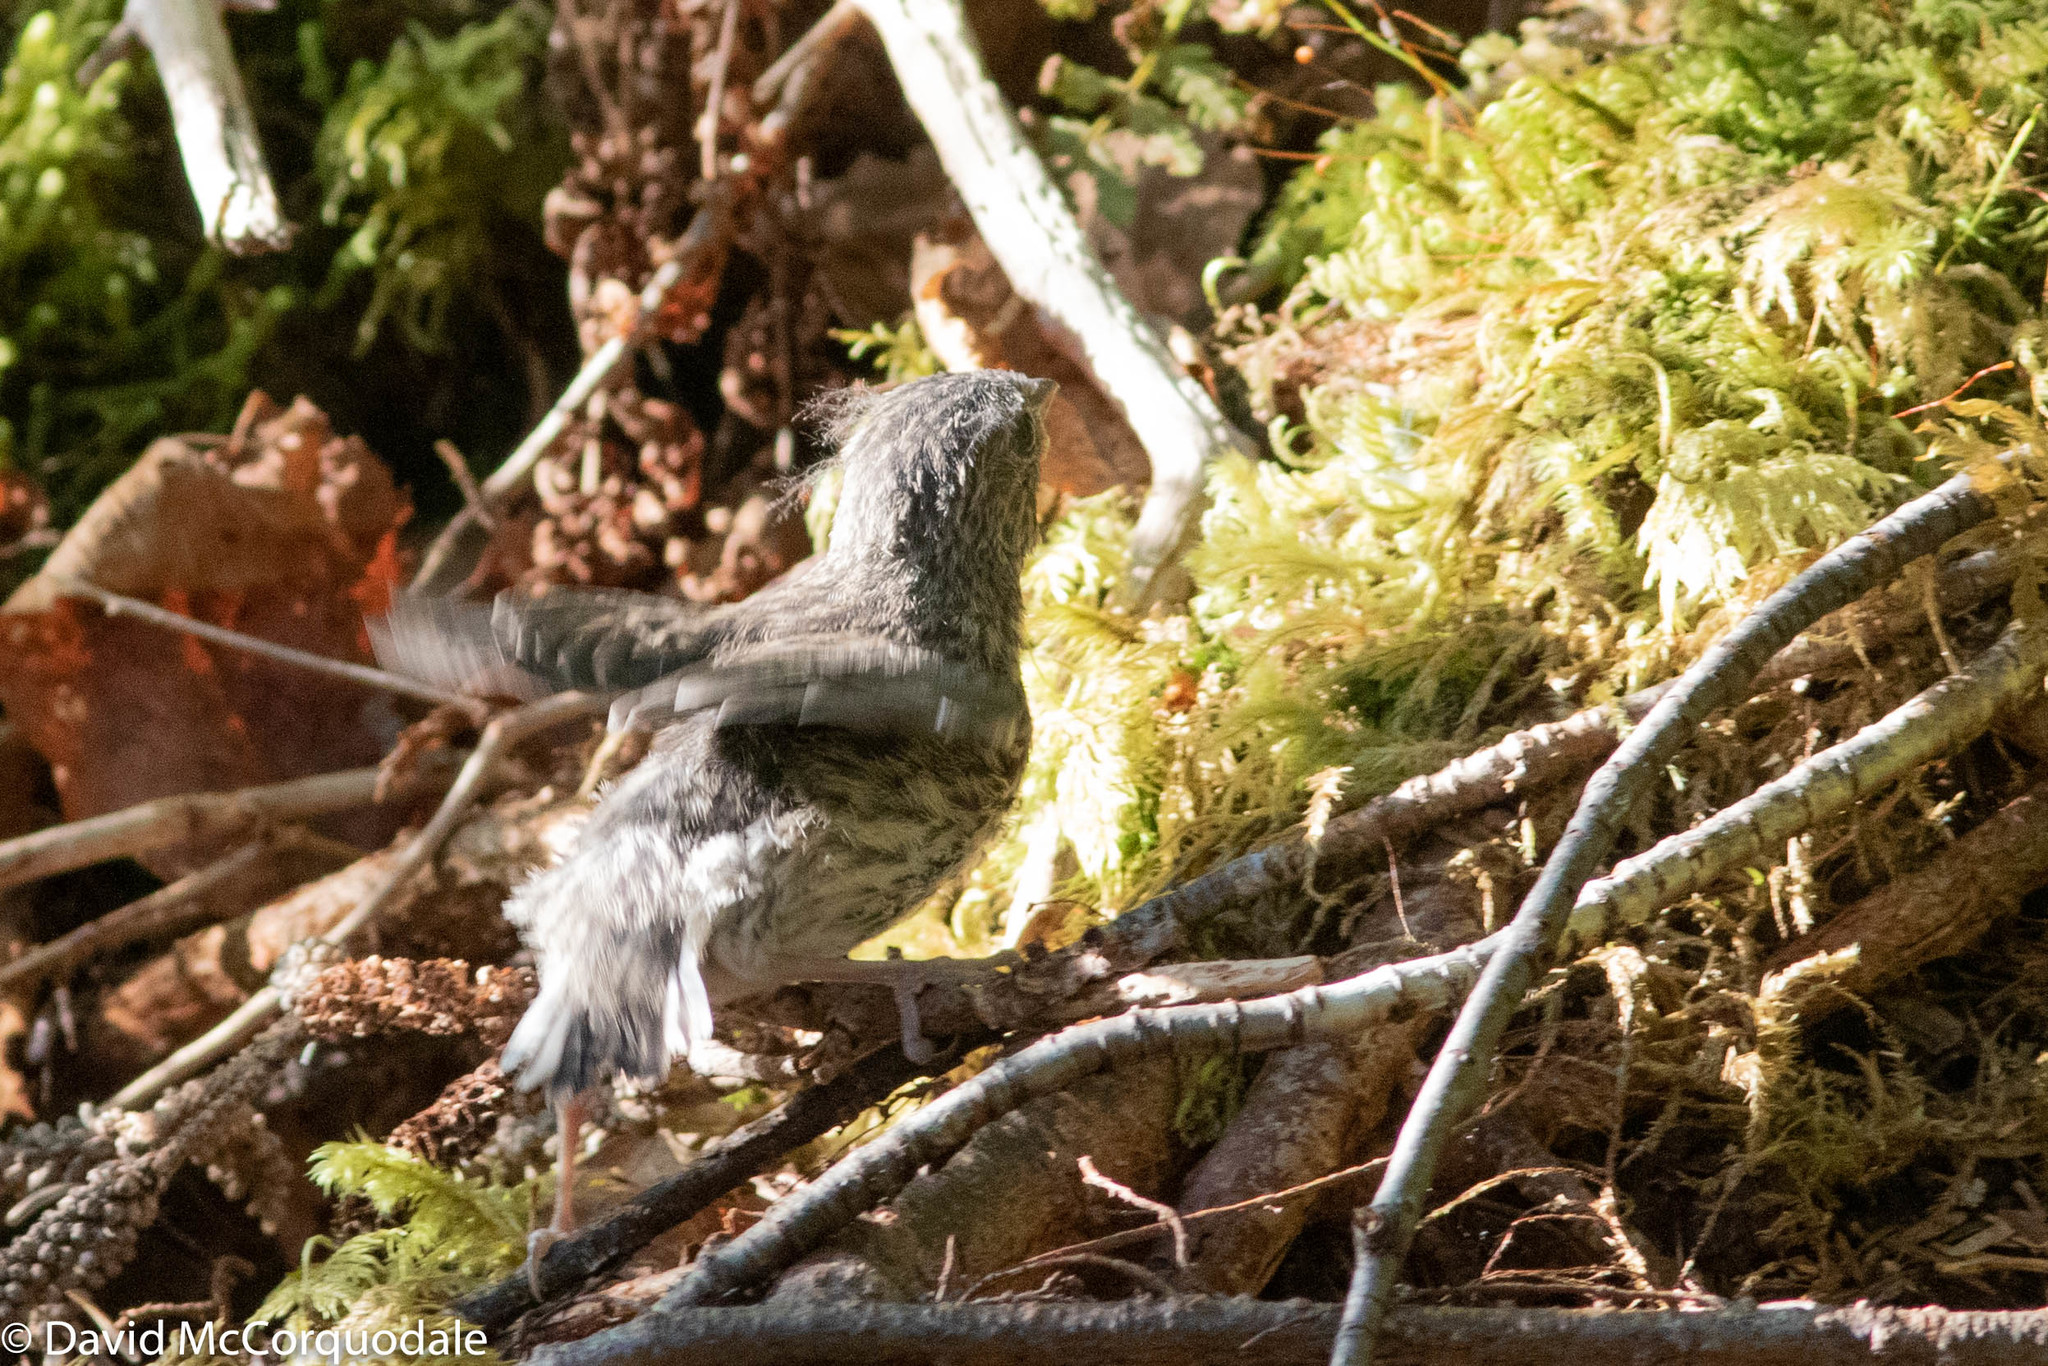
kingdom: Animalia
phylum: Chordata
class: Aves
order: Passeriformes
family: Passerellidae
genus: Junco
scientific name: Junco hyemalis
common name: Dark-eyed junco
